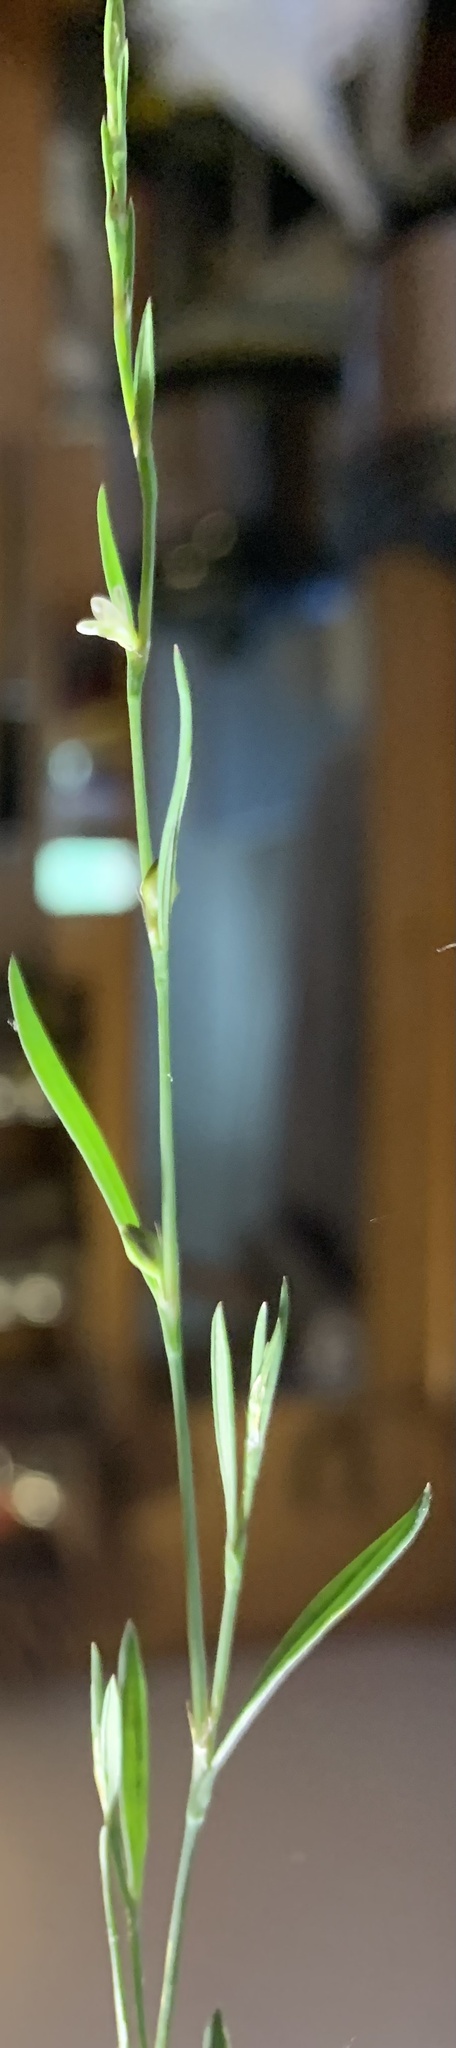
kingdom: Plantae
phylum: Tracheophyta
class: Magnoliopsida
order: Caryophyllales
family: Polygonaceae
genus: Polygonum
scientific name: Polygonum sawatchense
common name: Sawatch knotweed
